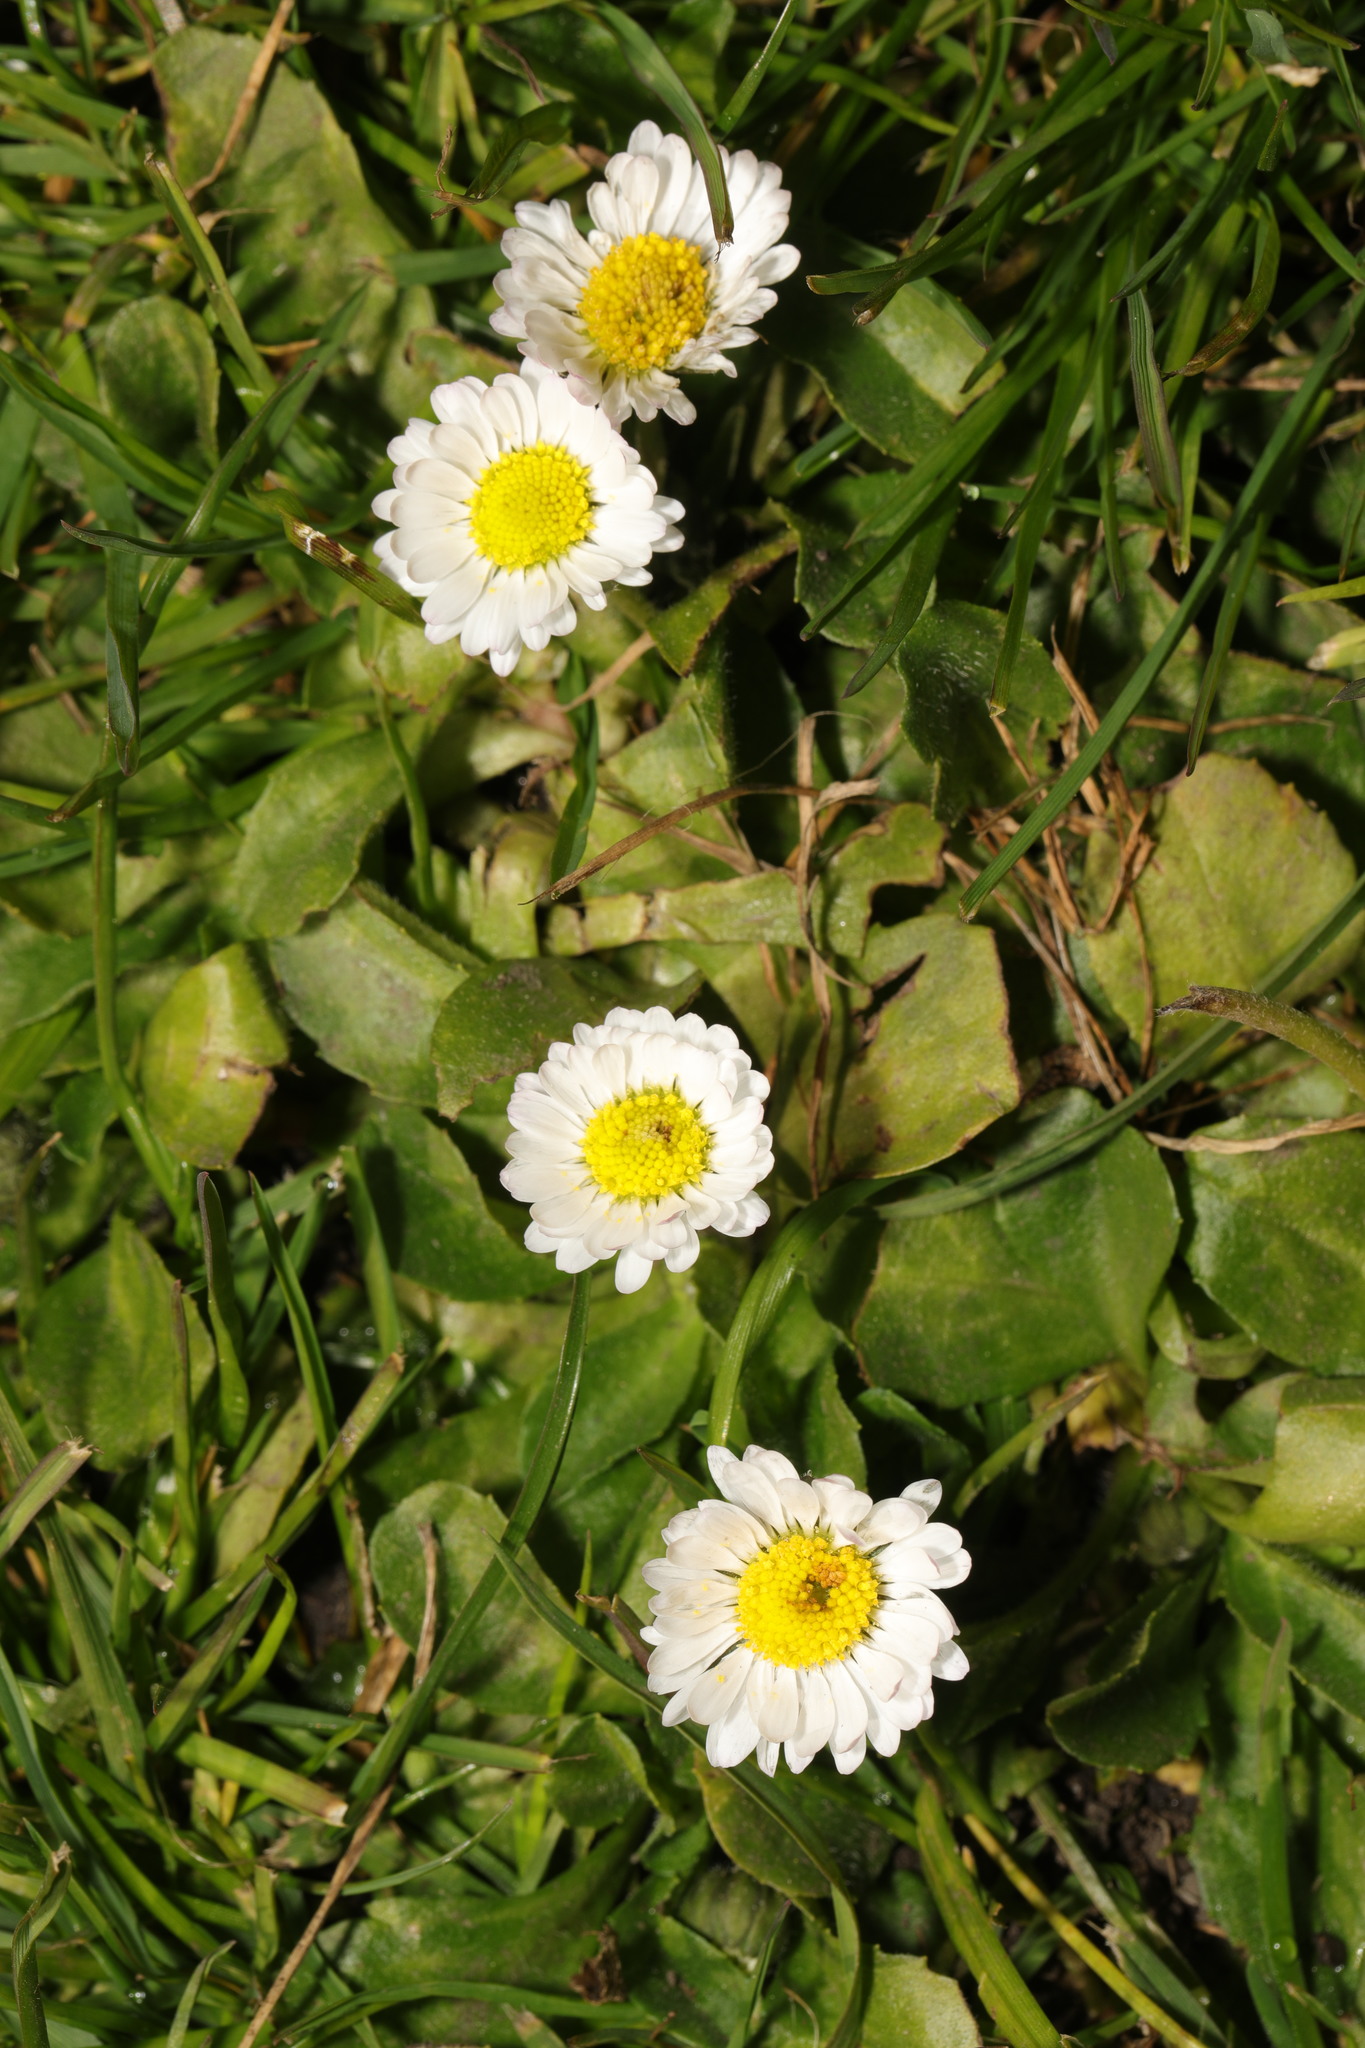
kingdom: Plantae
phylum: Tracheophyta
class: Magnoliopsida
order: Asterales
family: Asteraceae
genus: Bellis
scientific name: Bellis perennis
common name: Lawndaisy
